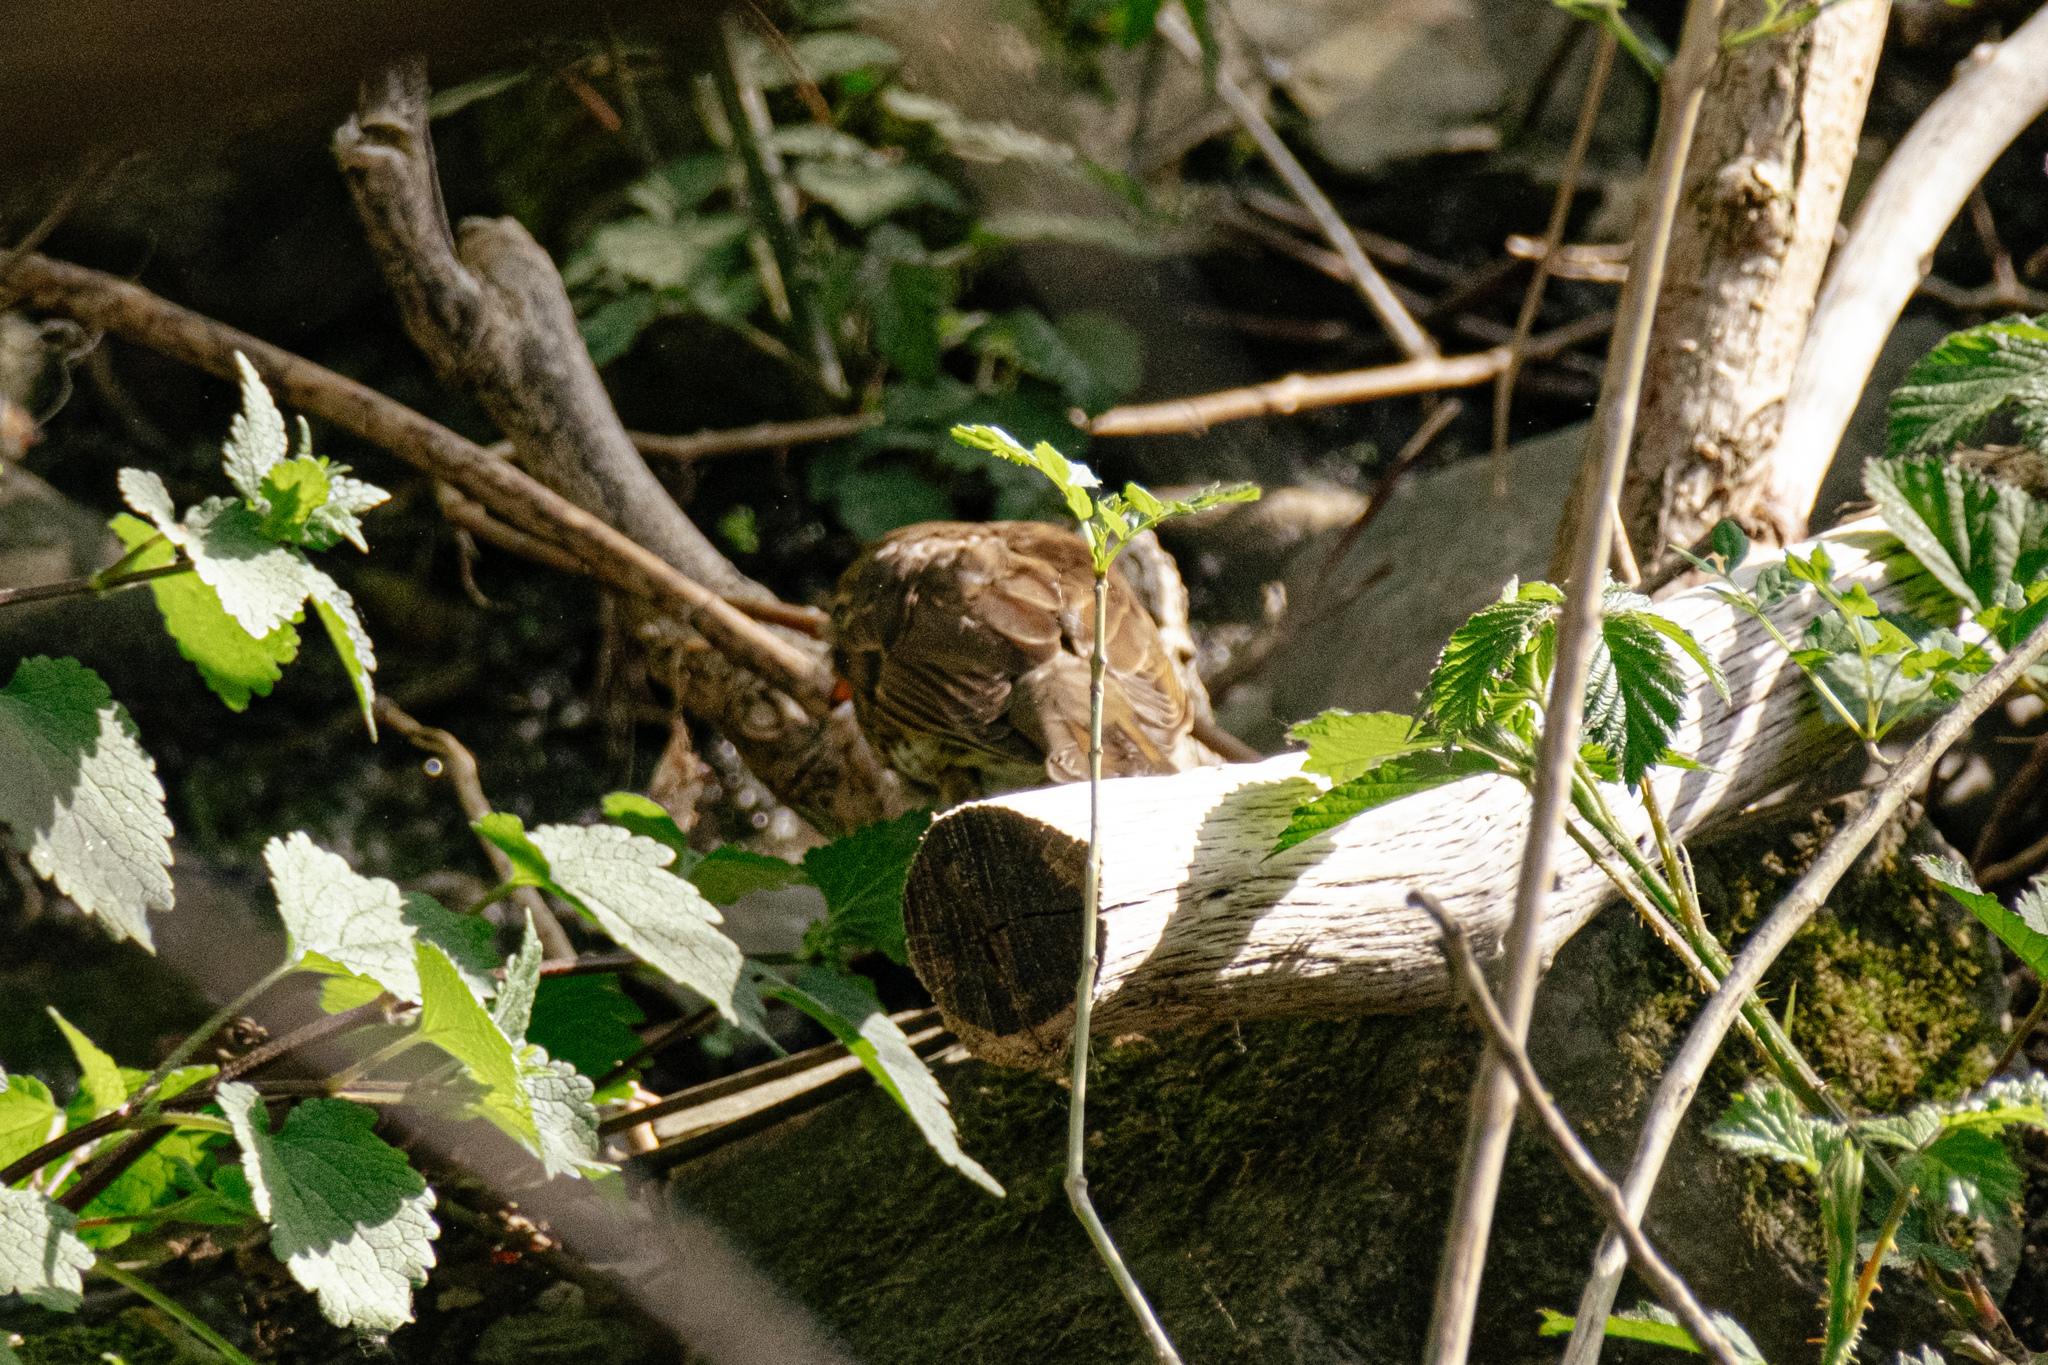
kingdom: Animalia
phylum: Chordata
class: Aves
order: Passeriformes
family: Turdidae
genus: Turdus
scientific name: Turdus philomelos
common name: Song thrush
